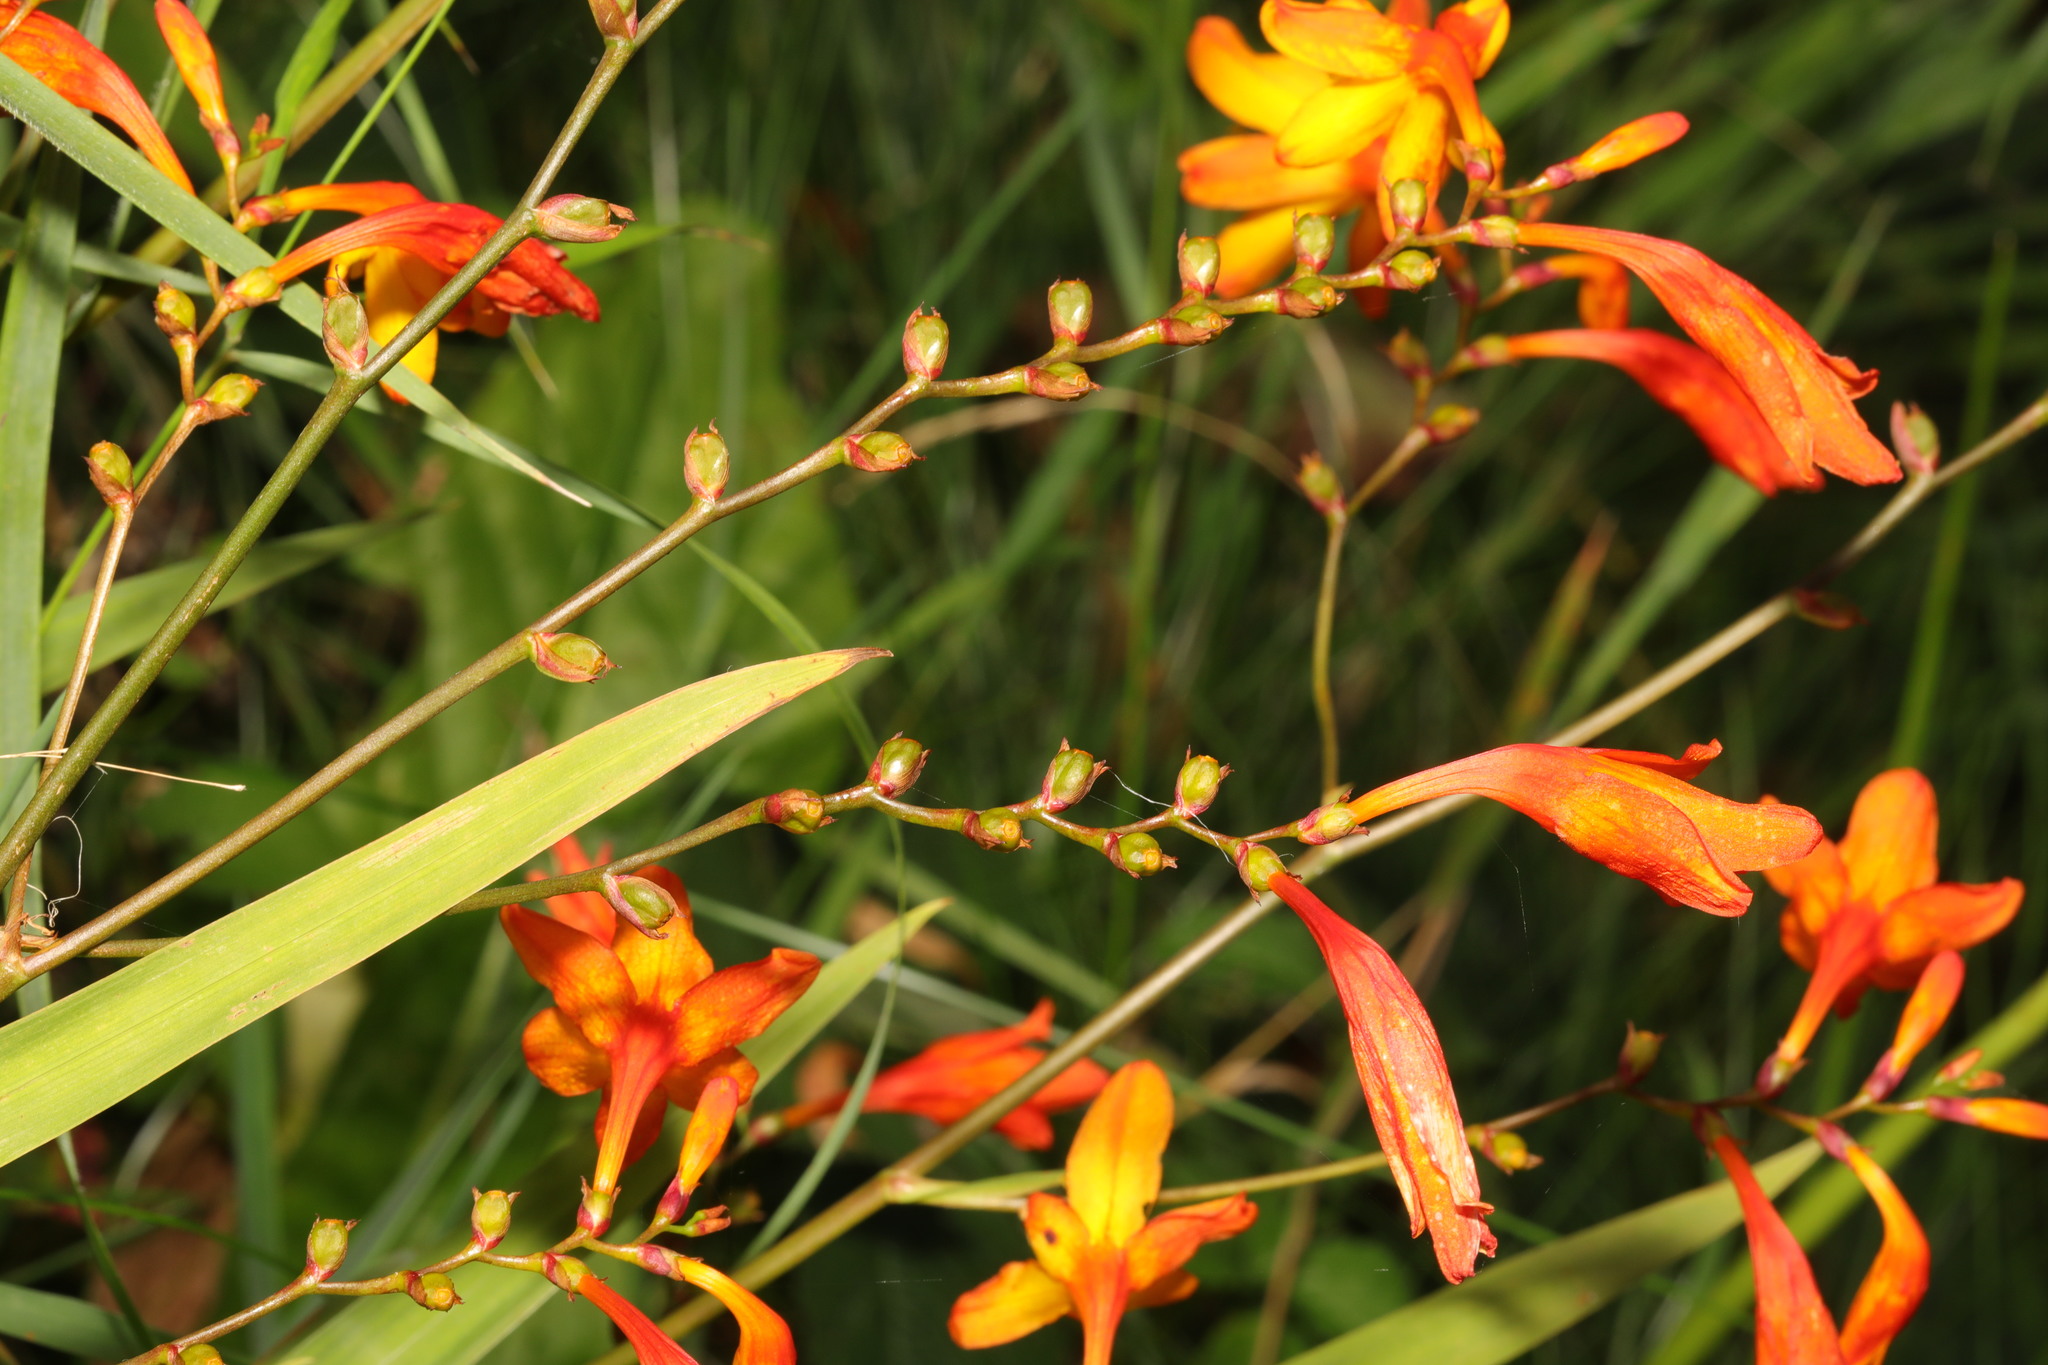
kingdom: Plantae
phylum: Tracheophyta
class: Liliopsida
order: Asparagales
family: Iridaceae
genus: Crocosmia
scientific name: Crocosmia crocosmiiflora
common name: Montbretia
